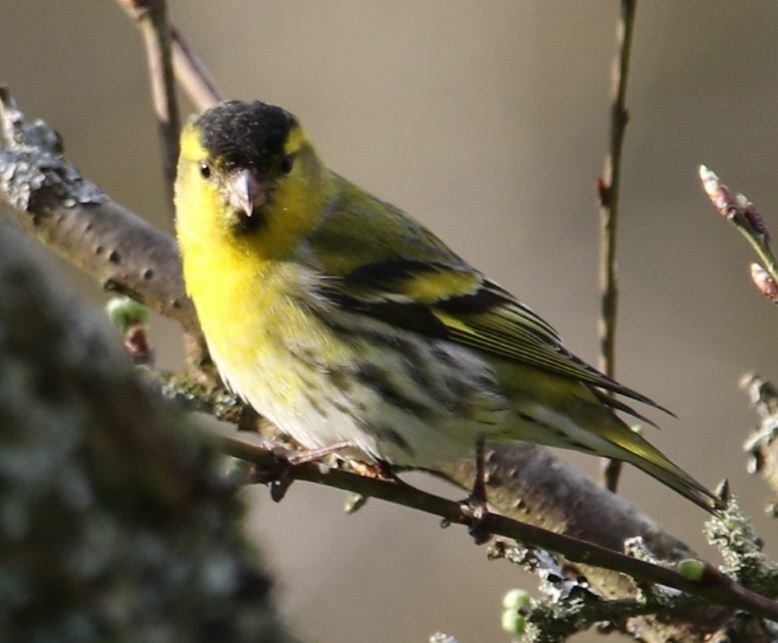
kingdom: Animalia
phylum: Chordata
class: Aves
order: Passeriformes
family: Fringillidae
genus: Spinus
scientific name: Spinus spinus
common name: Eurasian siskin
